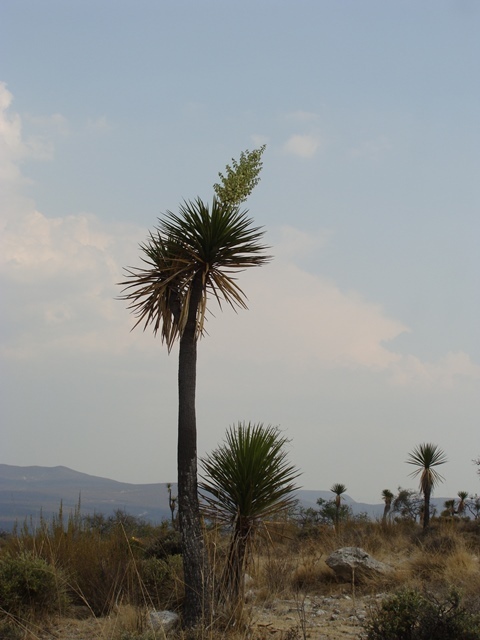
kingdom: Plantae
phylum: Tracheophyta
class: Liliopsida
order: Asparagales
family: Asparagaceae
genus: Yucca
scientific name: Yucca mixtecana
